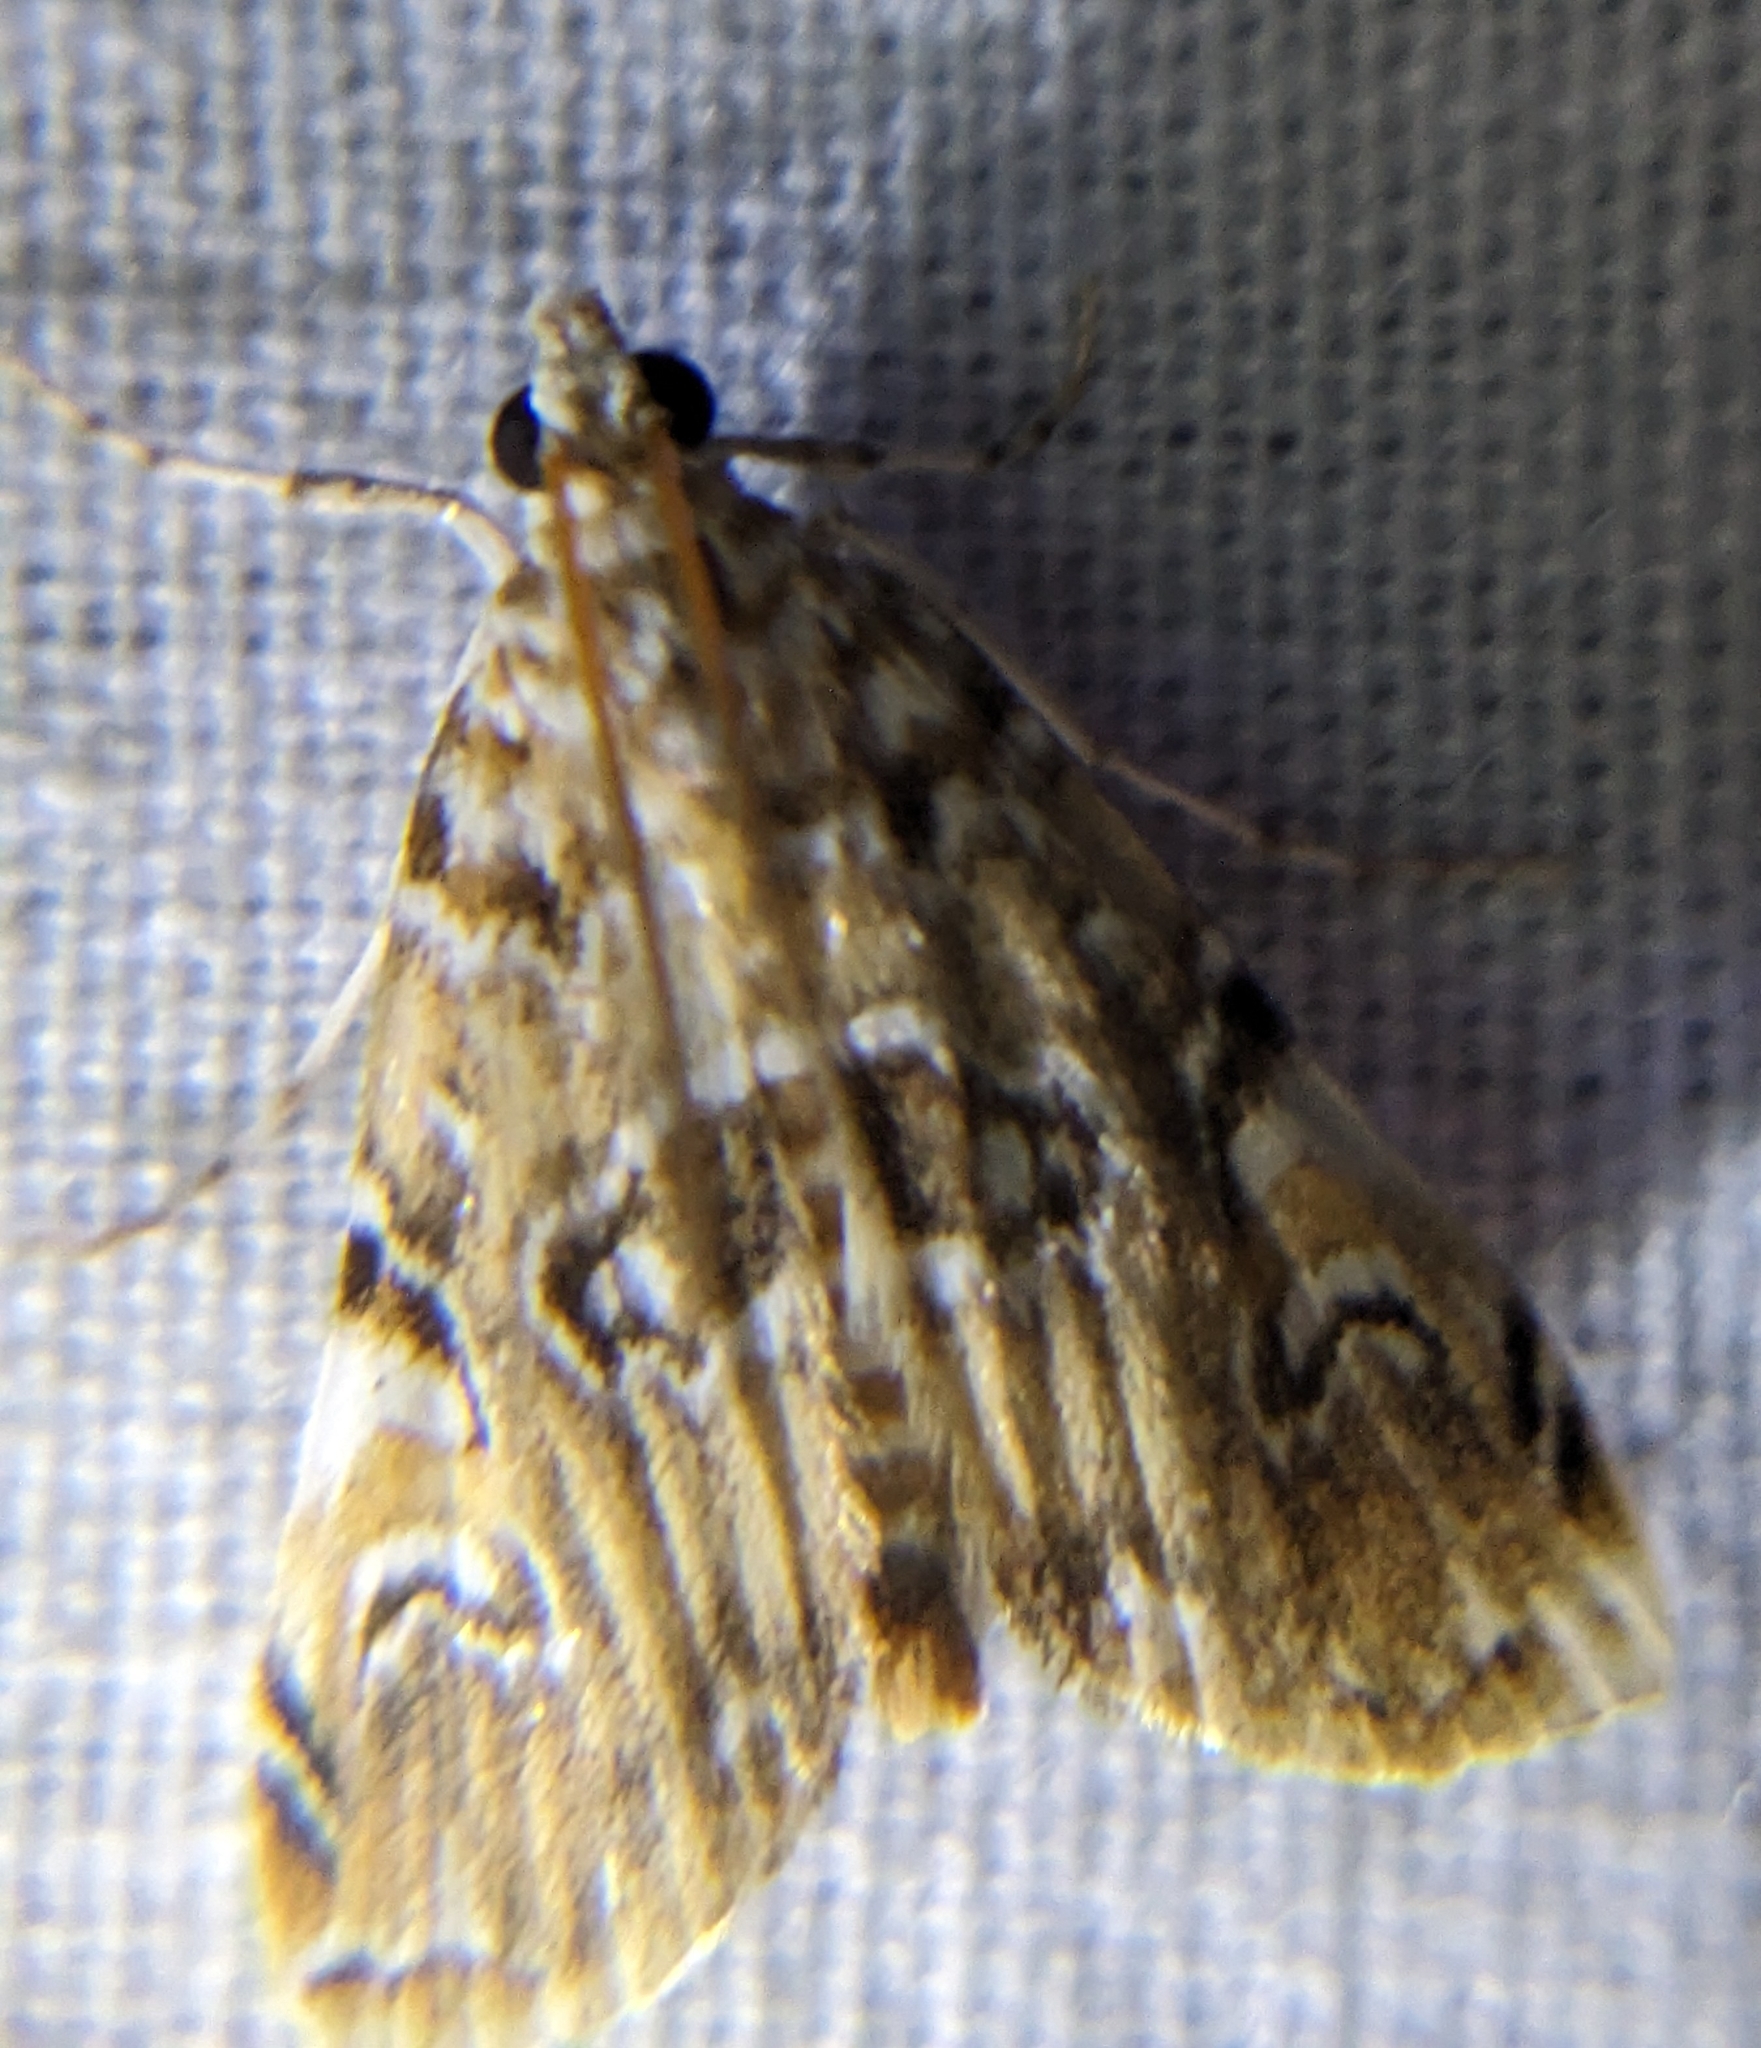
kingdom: Animalia
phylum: Arthropoda
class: Insecta
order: Lepidoptera
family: Crambidae
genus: Elophila
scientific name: Elophila gyralis
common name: Waterlily borer moth
